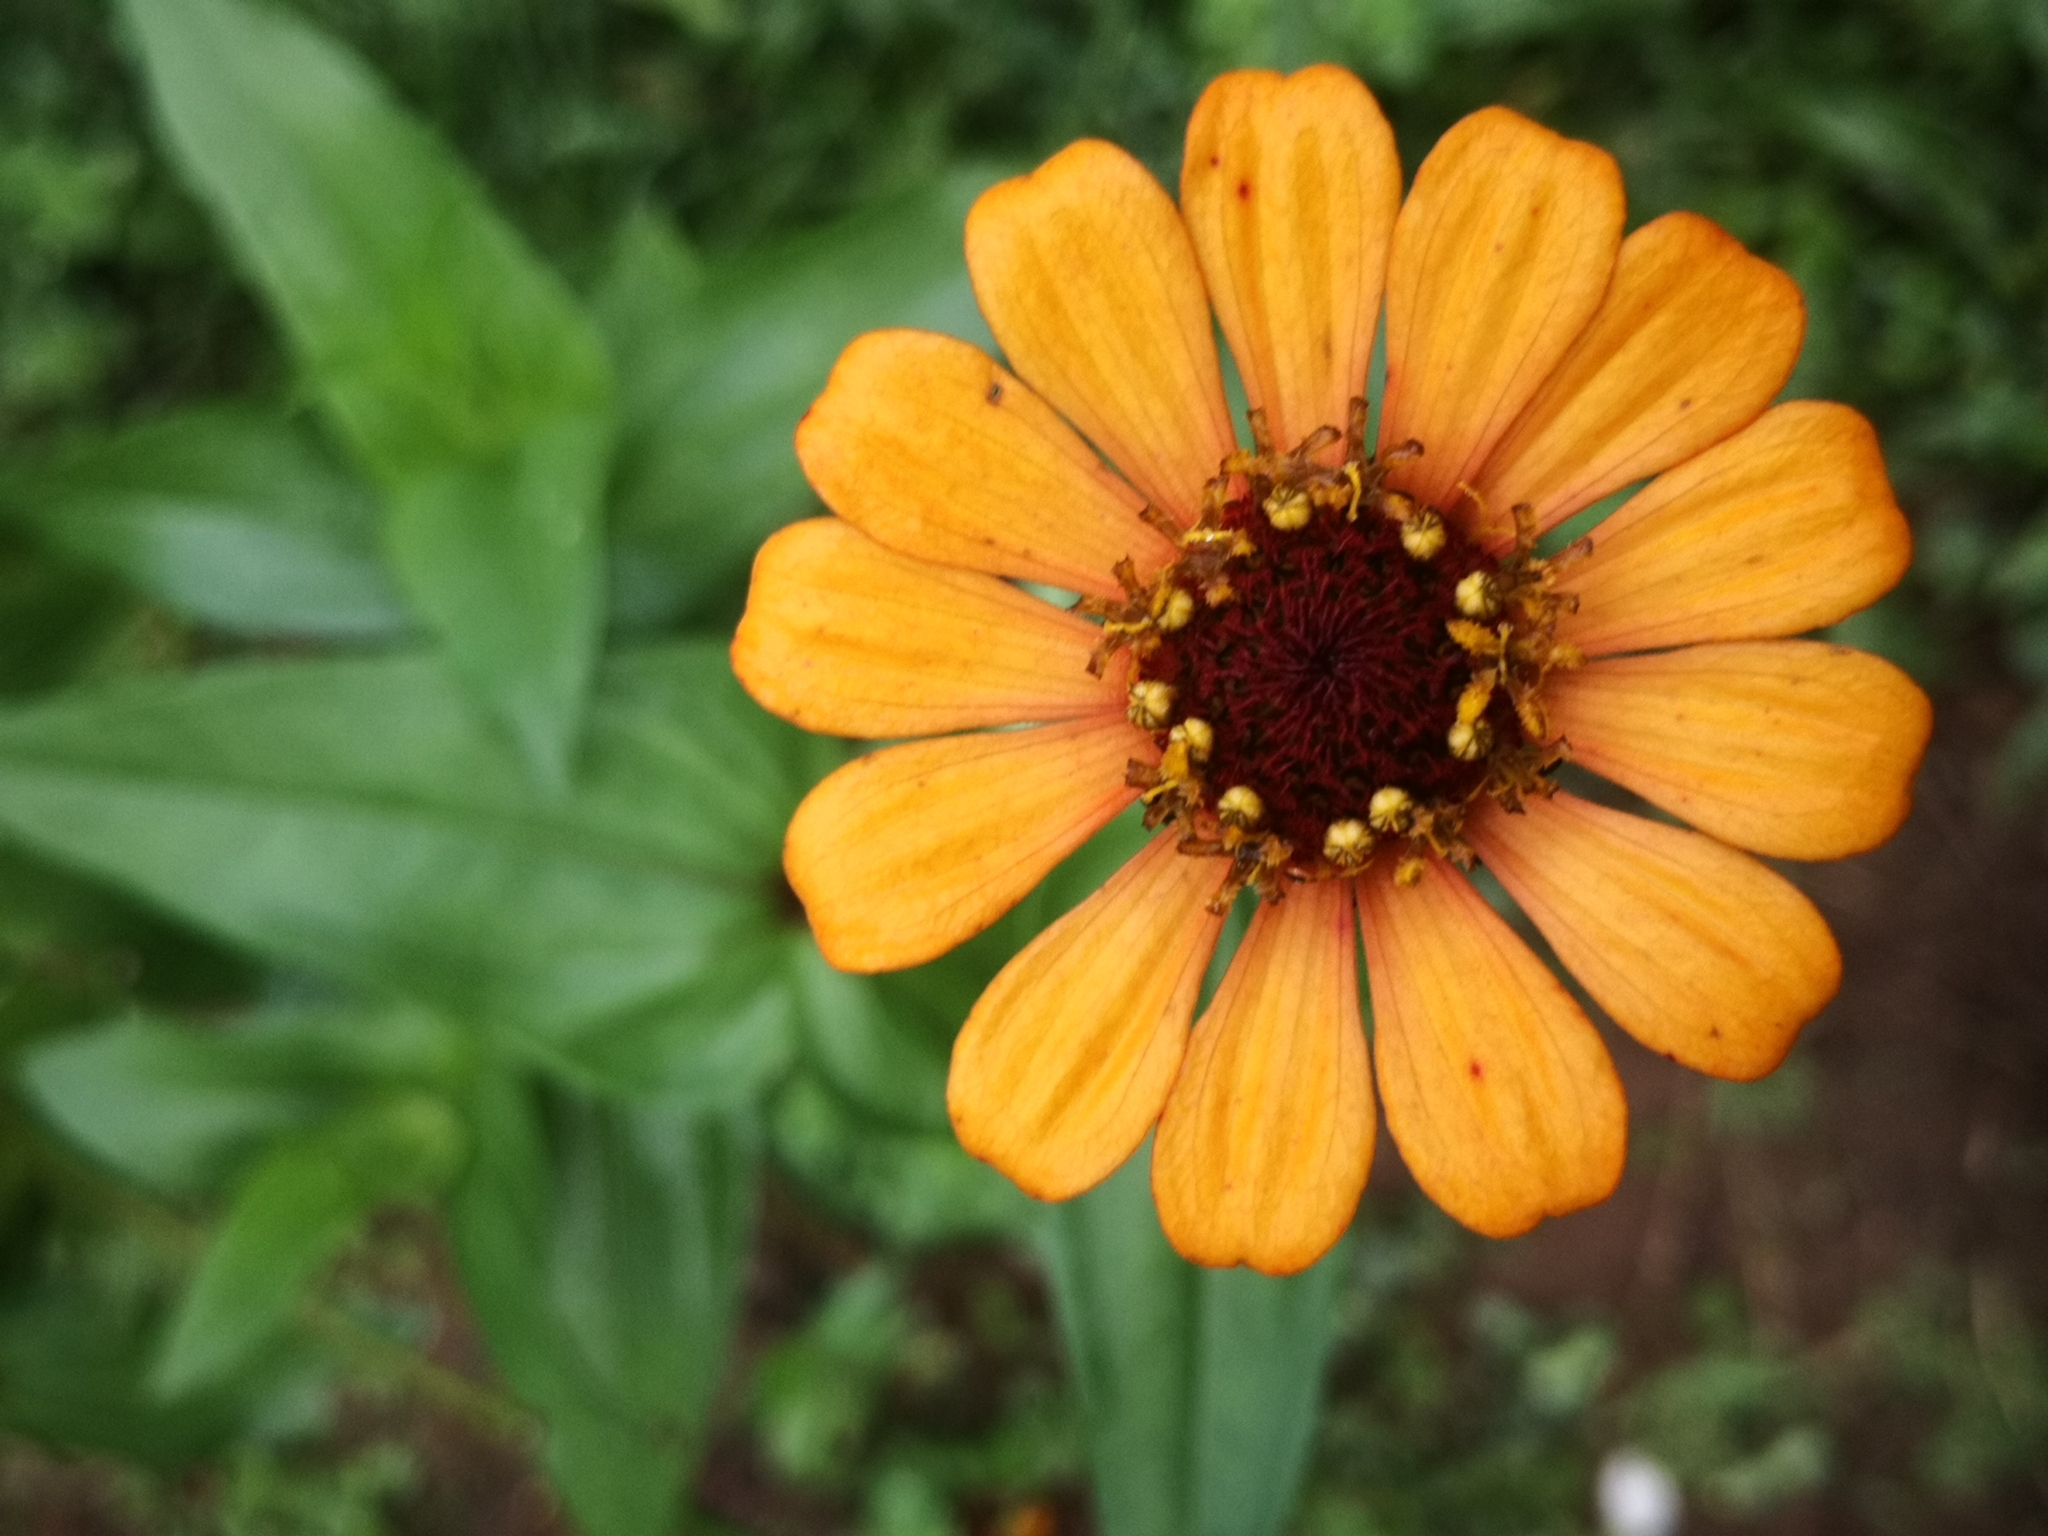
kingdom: Plantae
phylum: Tracheophyta
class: Magnoliopsida
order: Asterales
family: Asteraceae
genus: Zinnia
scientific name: Zinnia elegans
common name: Youth-and-age
